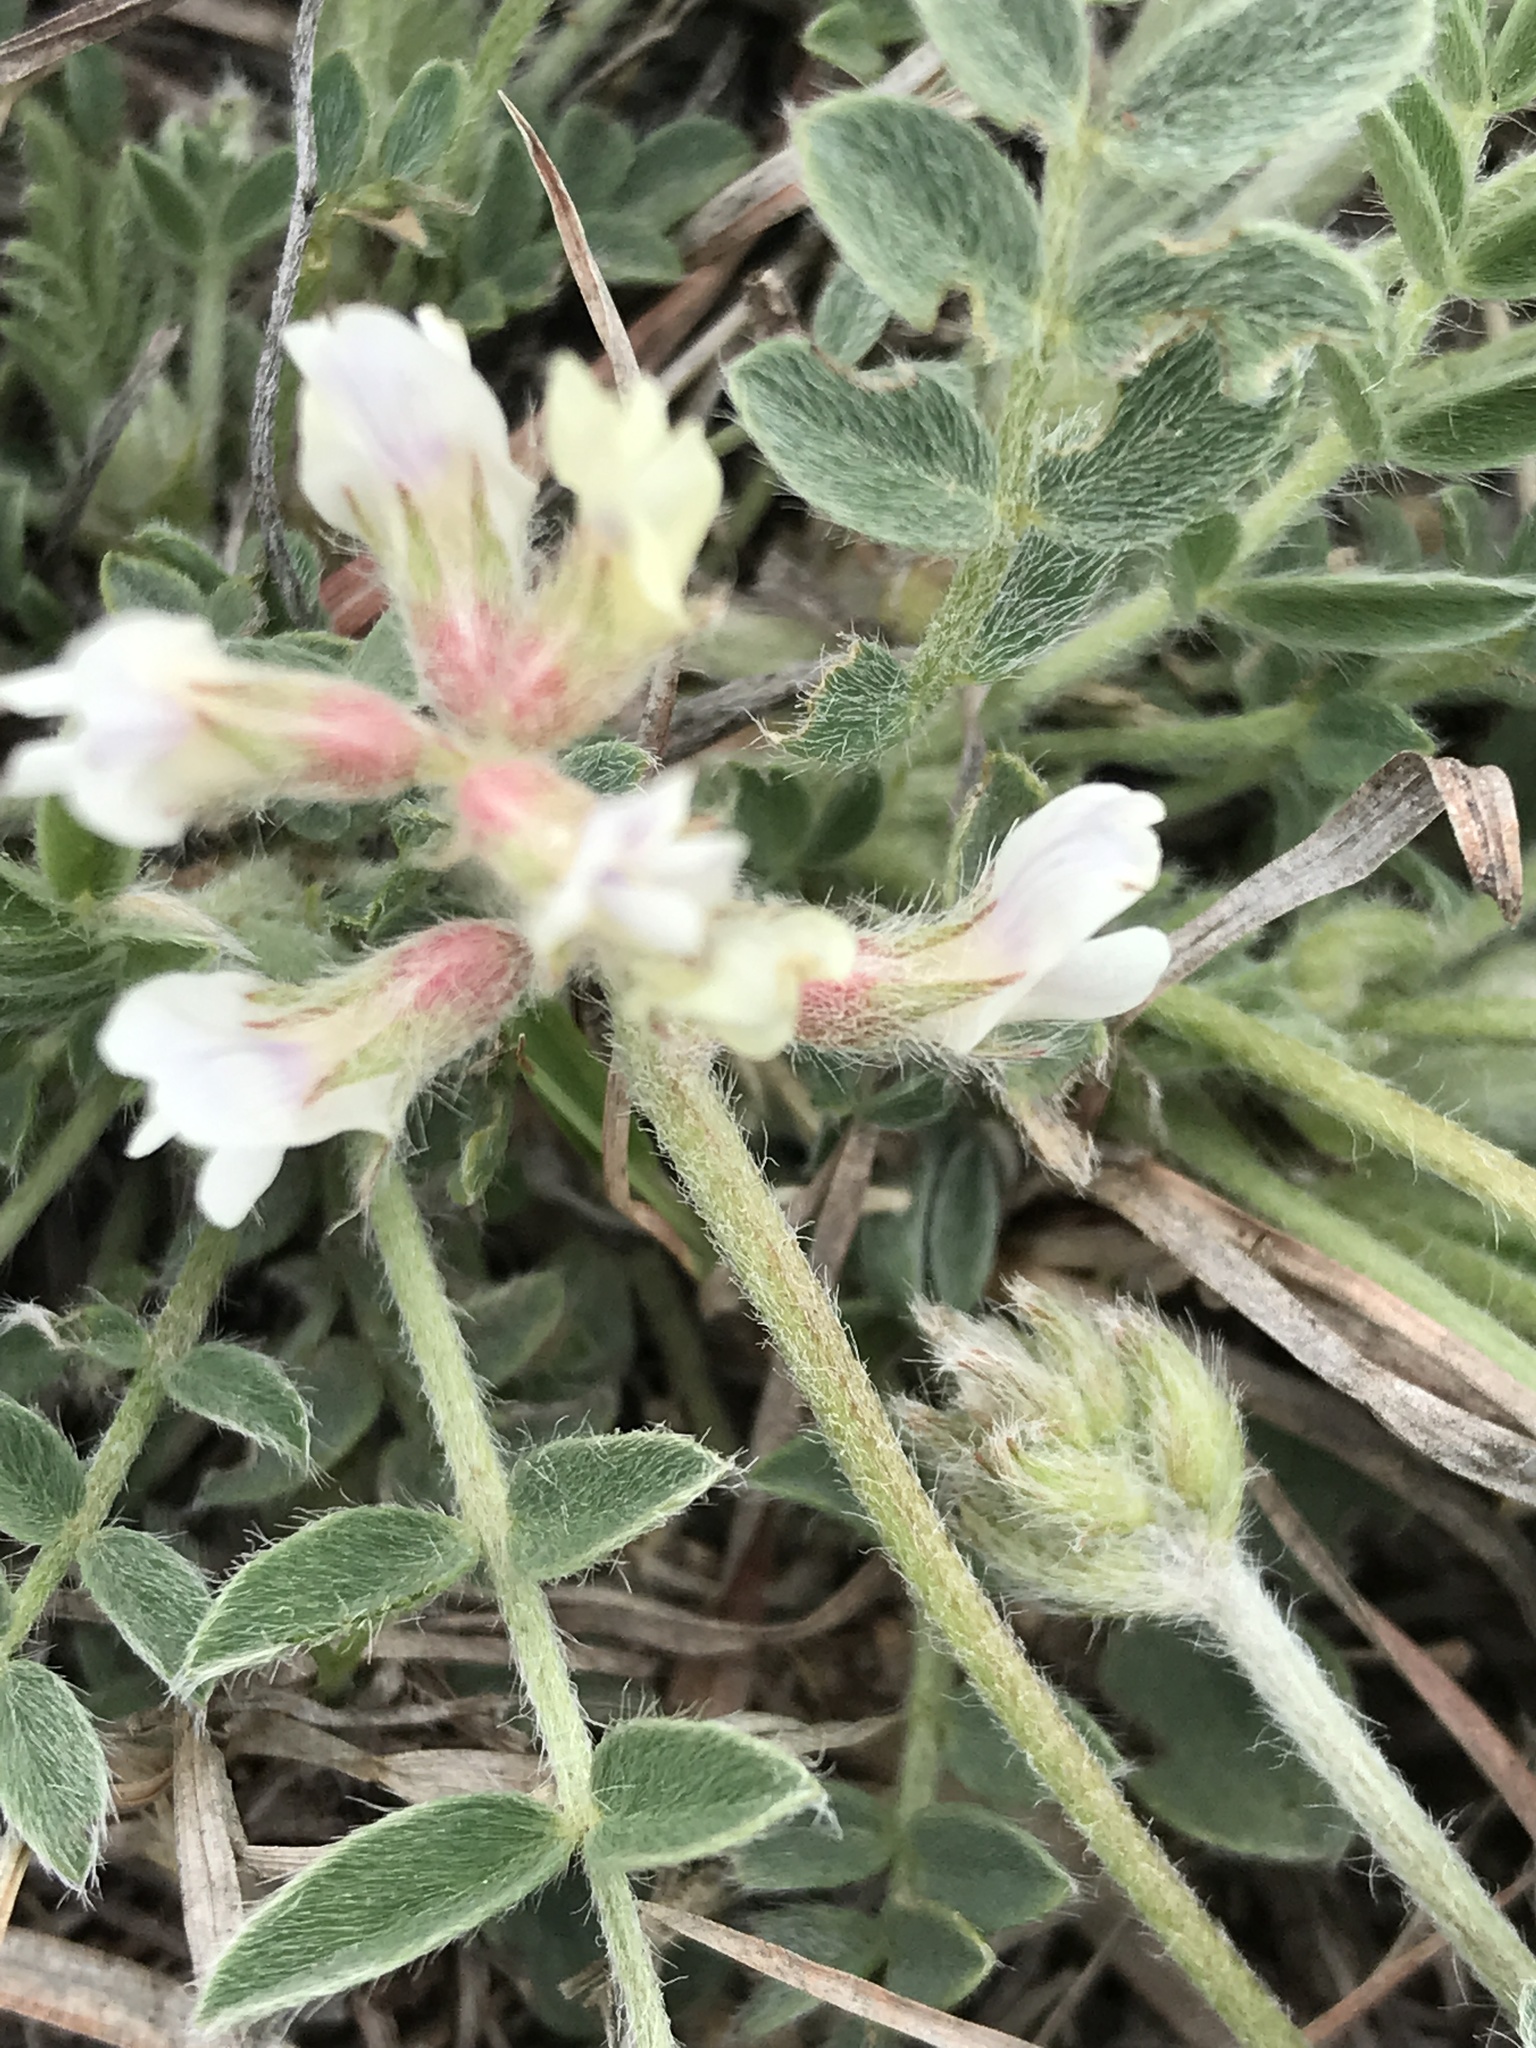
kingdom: Plantae
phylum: Tracheophyta
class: Magnoliopsida
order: Fabales
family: Fabaceae
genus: Astragalus
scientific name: Astragalus lotiflorus
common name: Lotus milk-vetch
